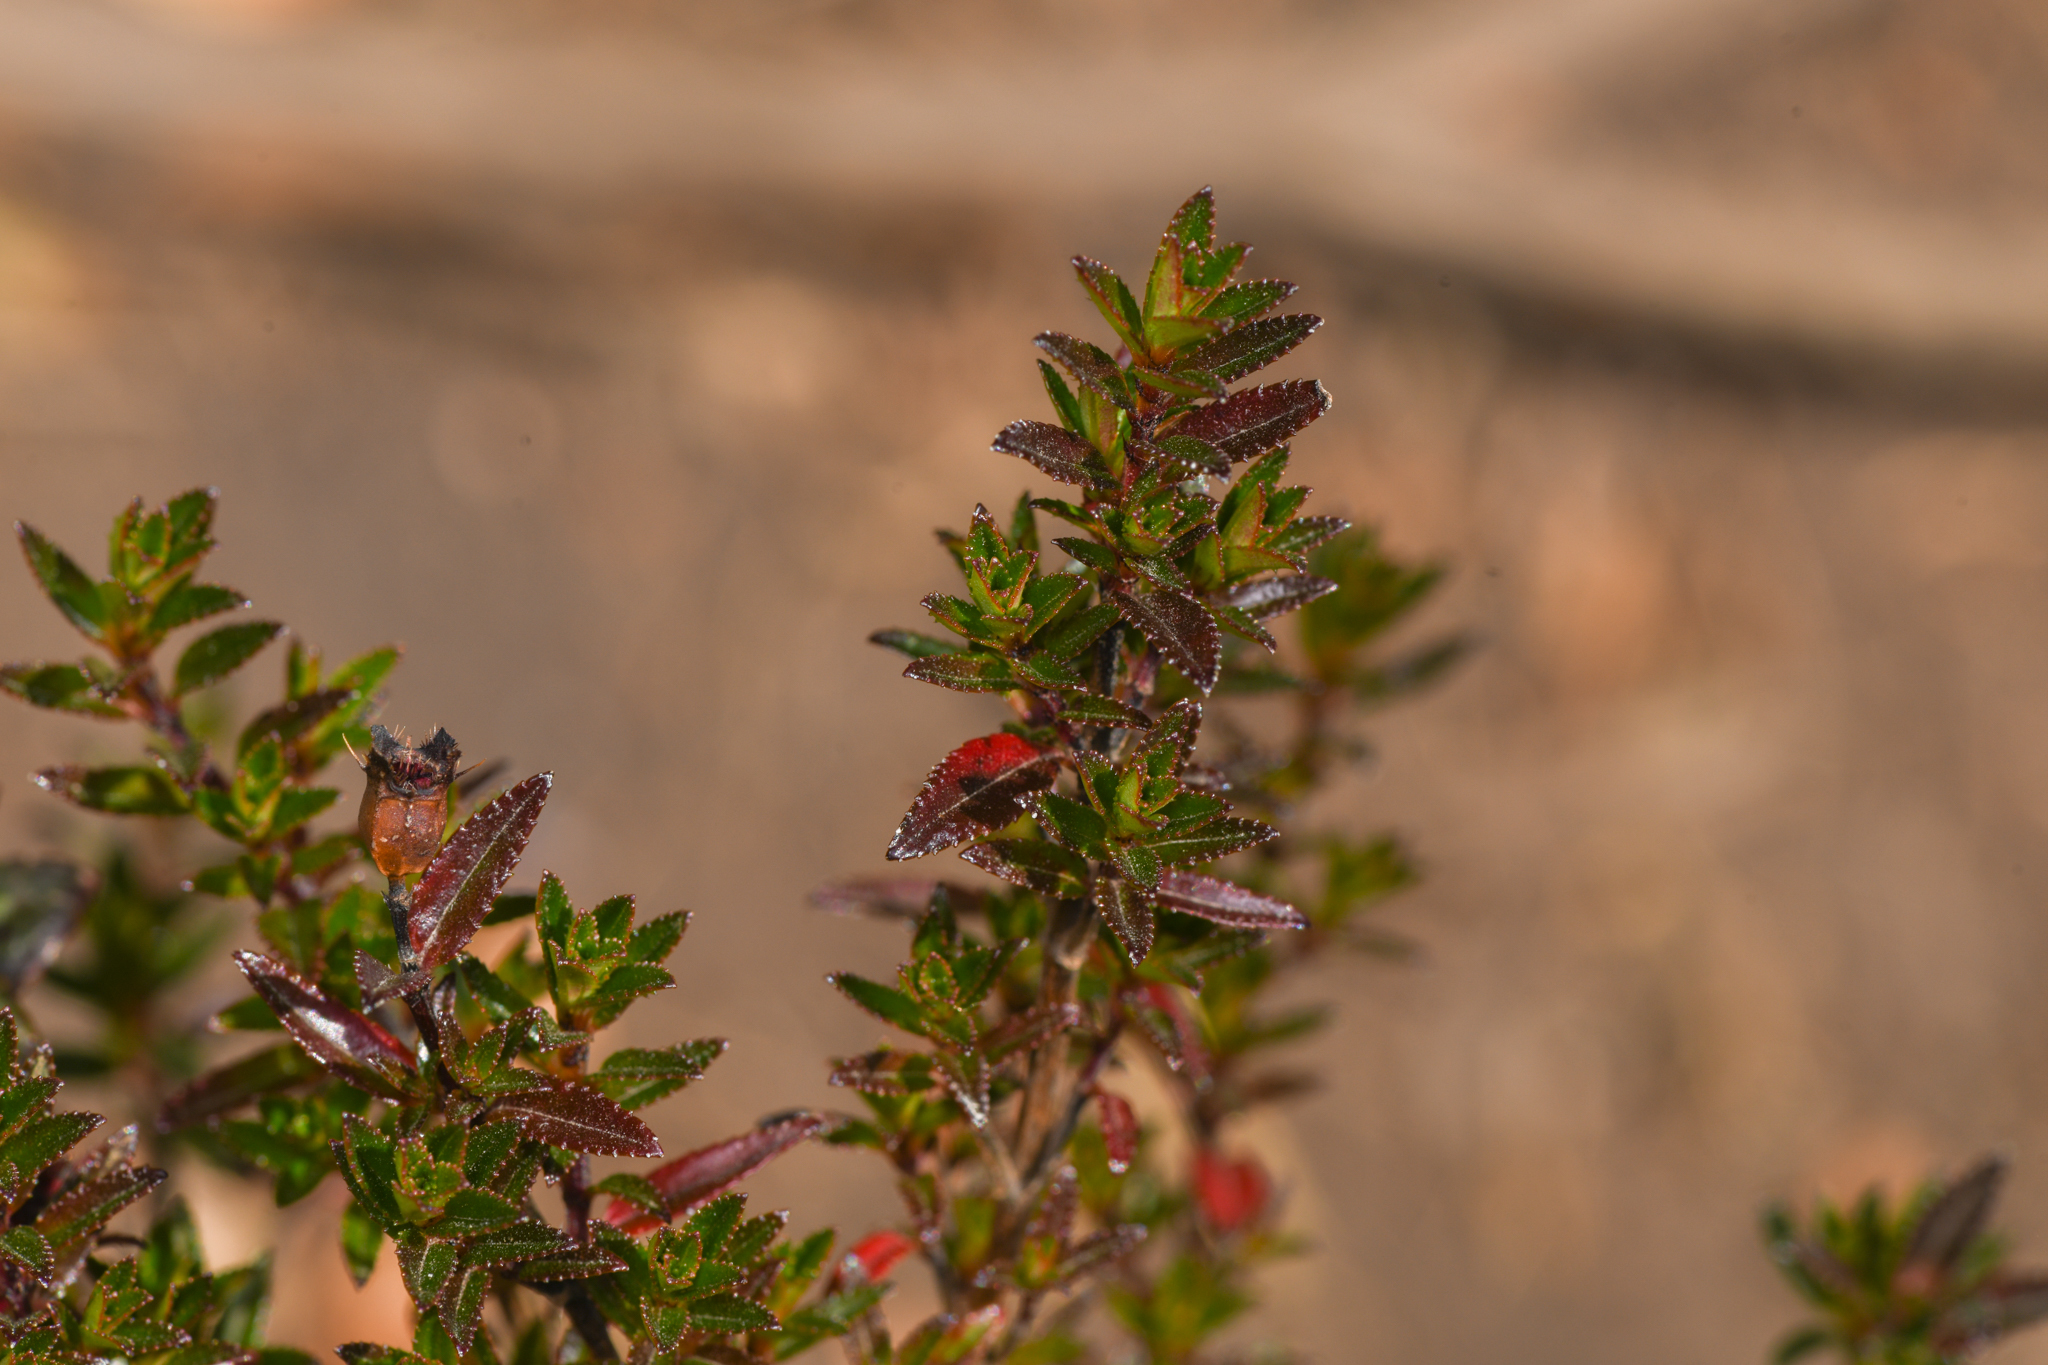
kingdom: Plantae
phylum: Tracheophyta
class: Magnoliopsida
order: Myrtales
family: Melastomataceae
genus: Chaetolepis
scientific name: Chaetolepis cufodontisii
